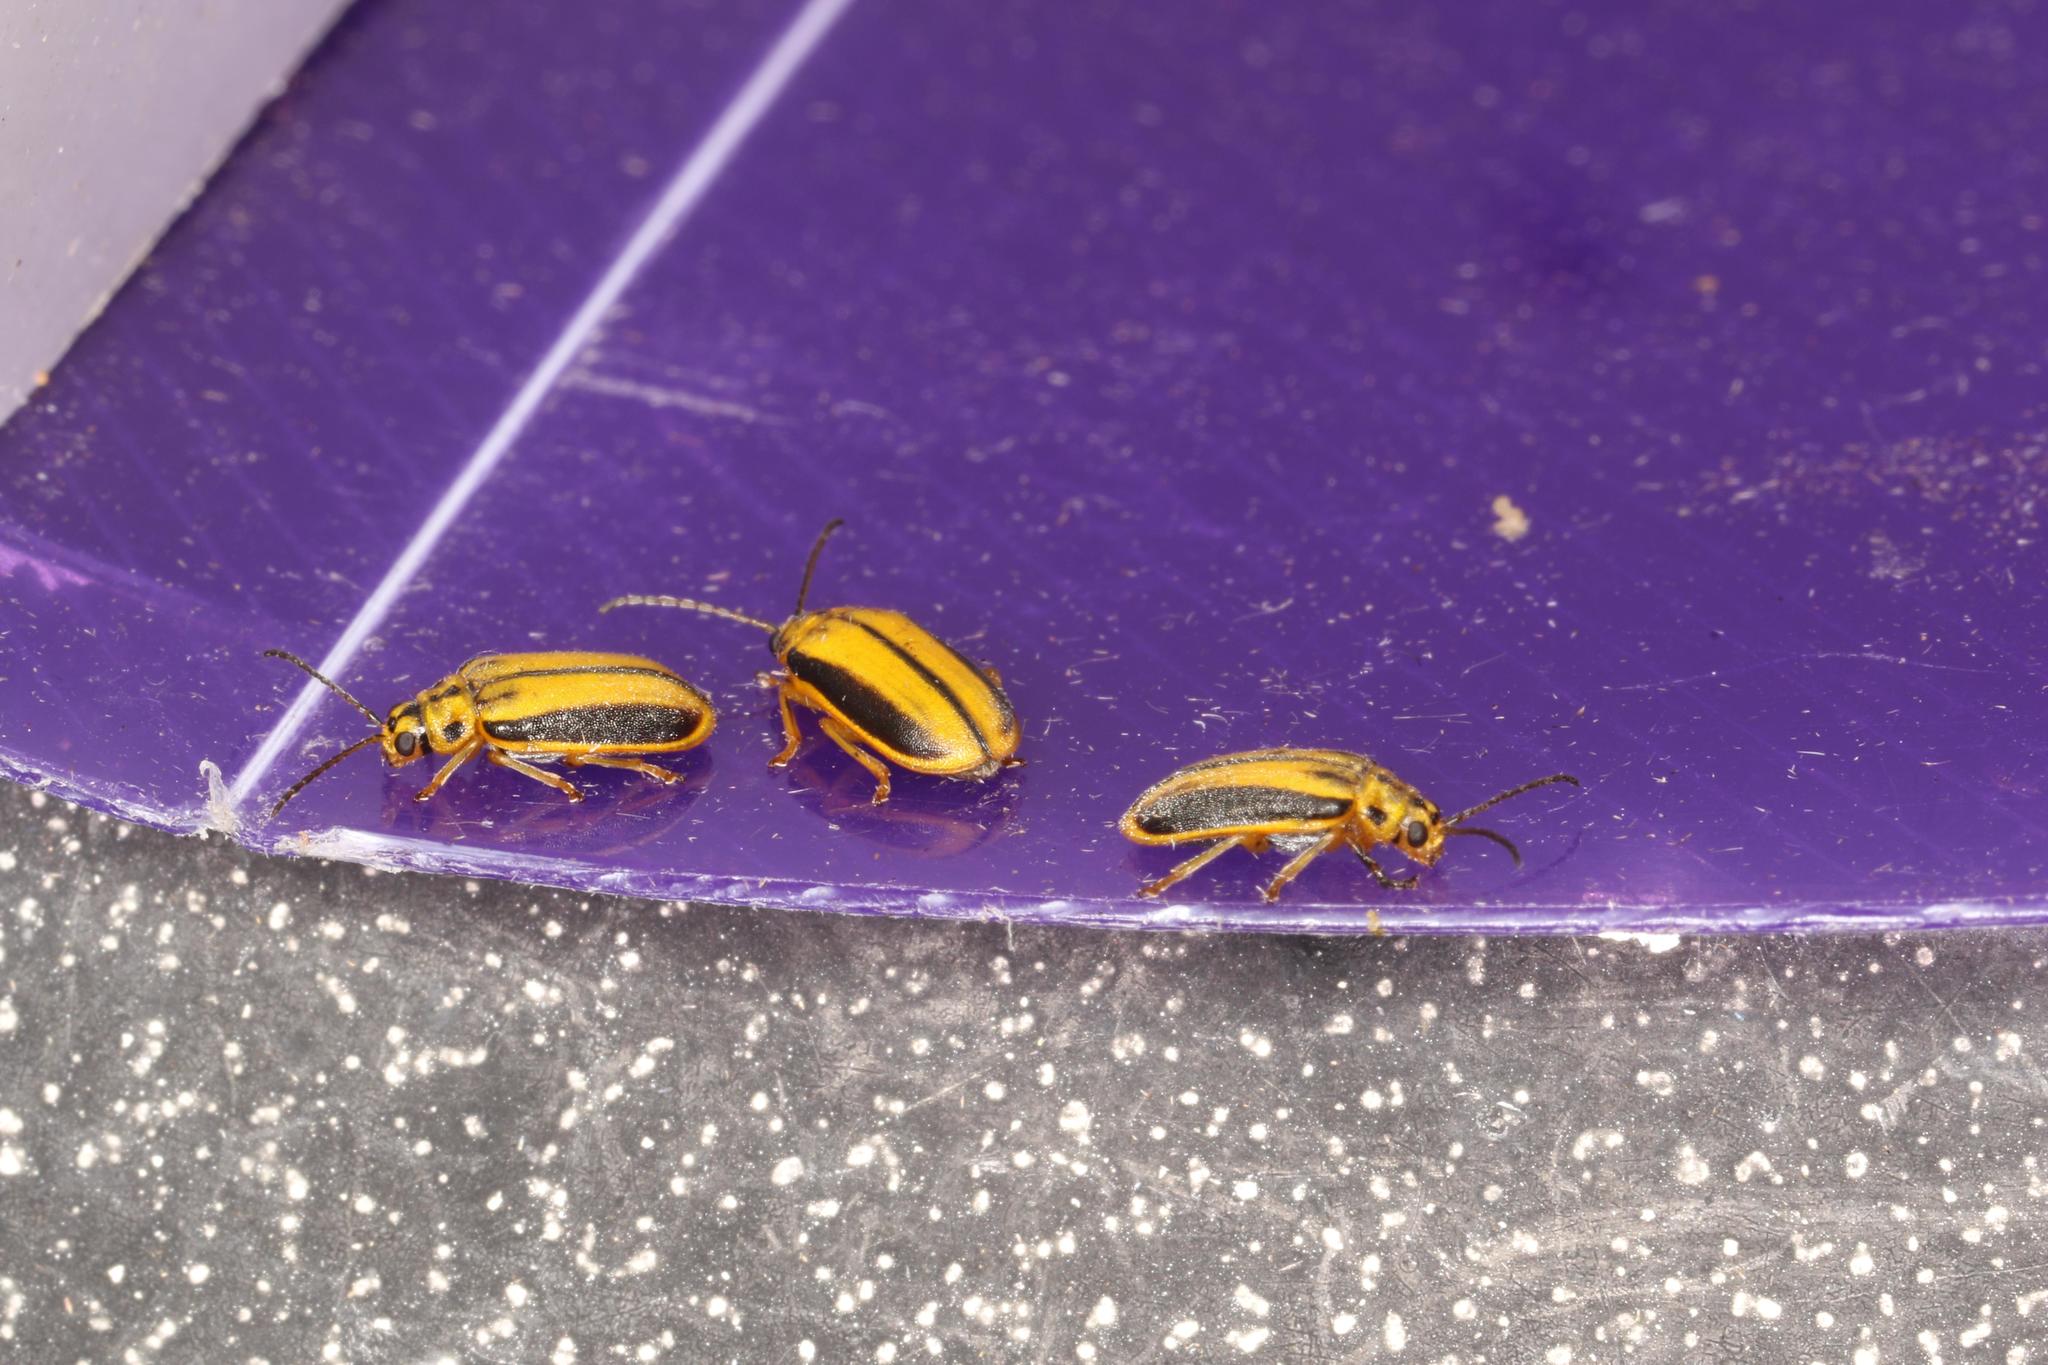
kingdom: Animalia
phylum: Arthropoda
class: Insecta
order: Coleoptera
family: Chrysomelidae
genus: Xanthogaleruca
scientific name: Xanthogaleruca luteola
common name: Elm leaf beetle
